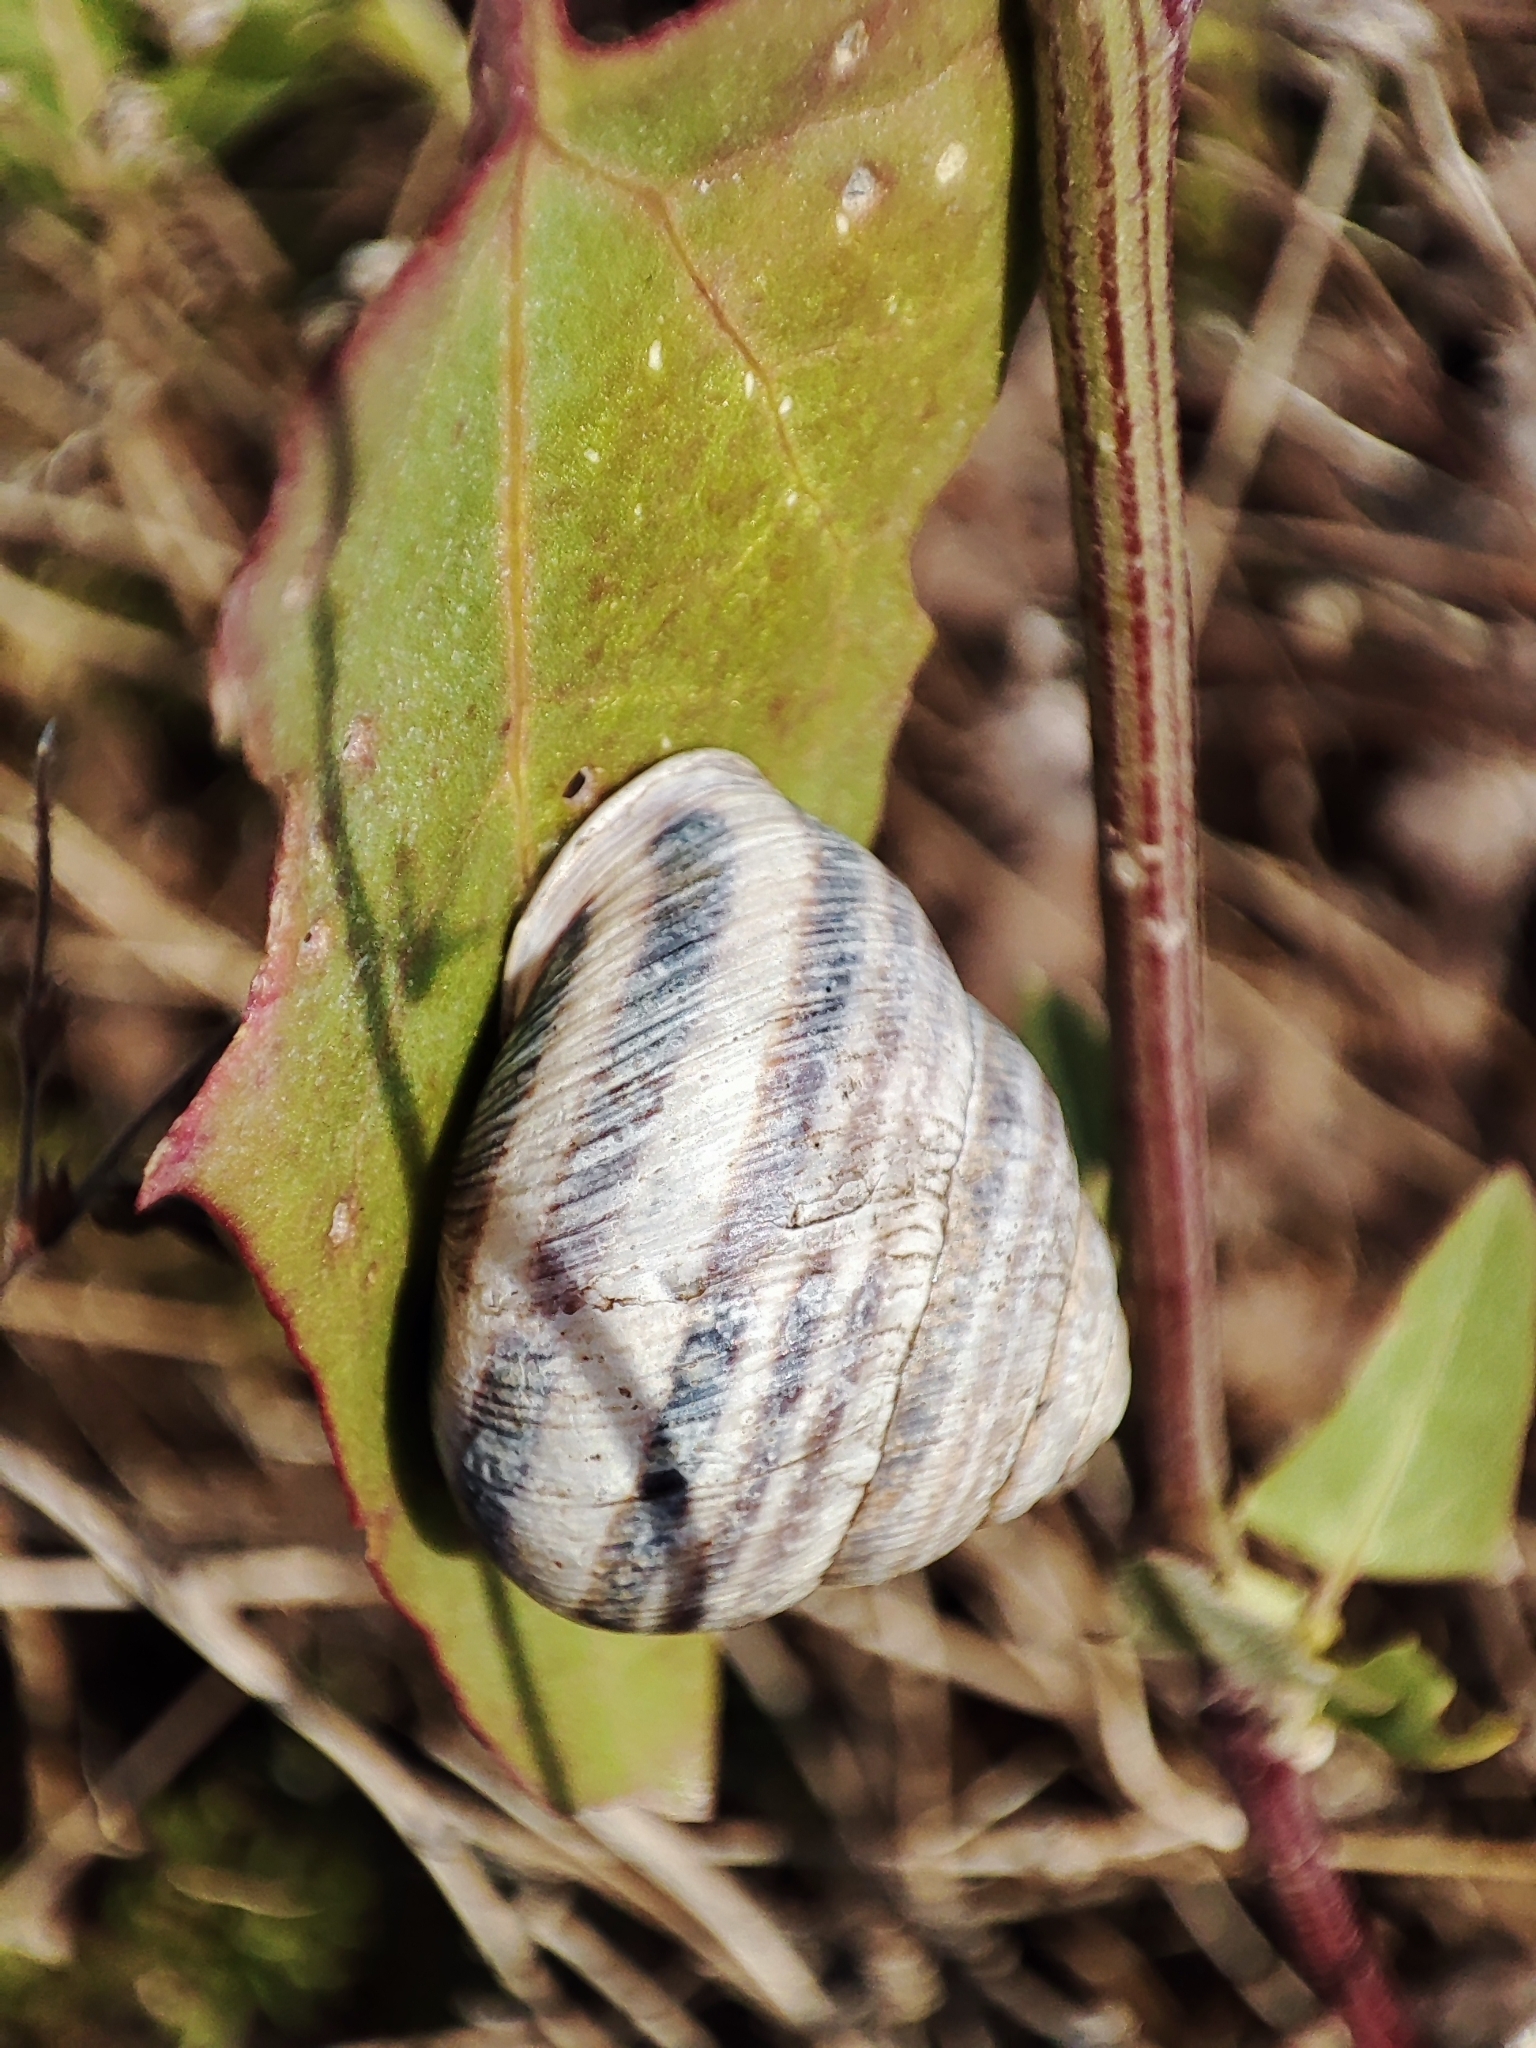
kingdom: Animalia
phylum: Mollusca
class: Gastropoda
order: Stylommatophora
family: Helicidae
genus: Caucasotachea
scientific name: Caucasotachea vindobonensis
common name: European helicid land snail
